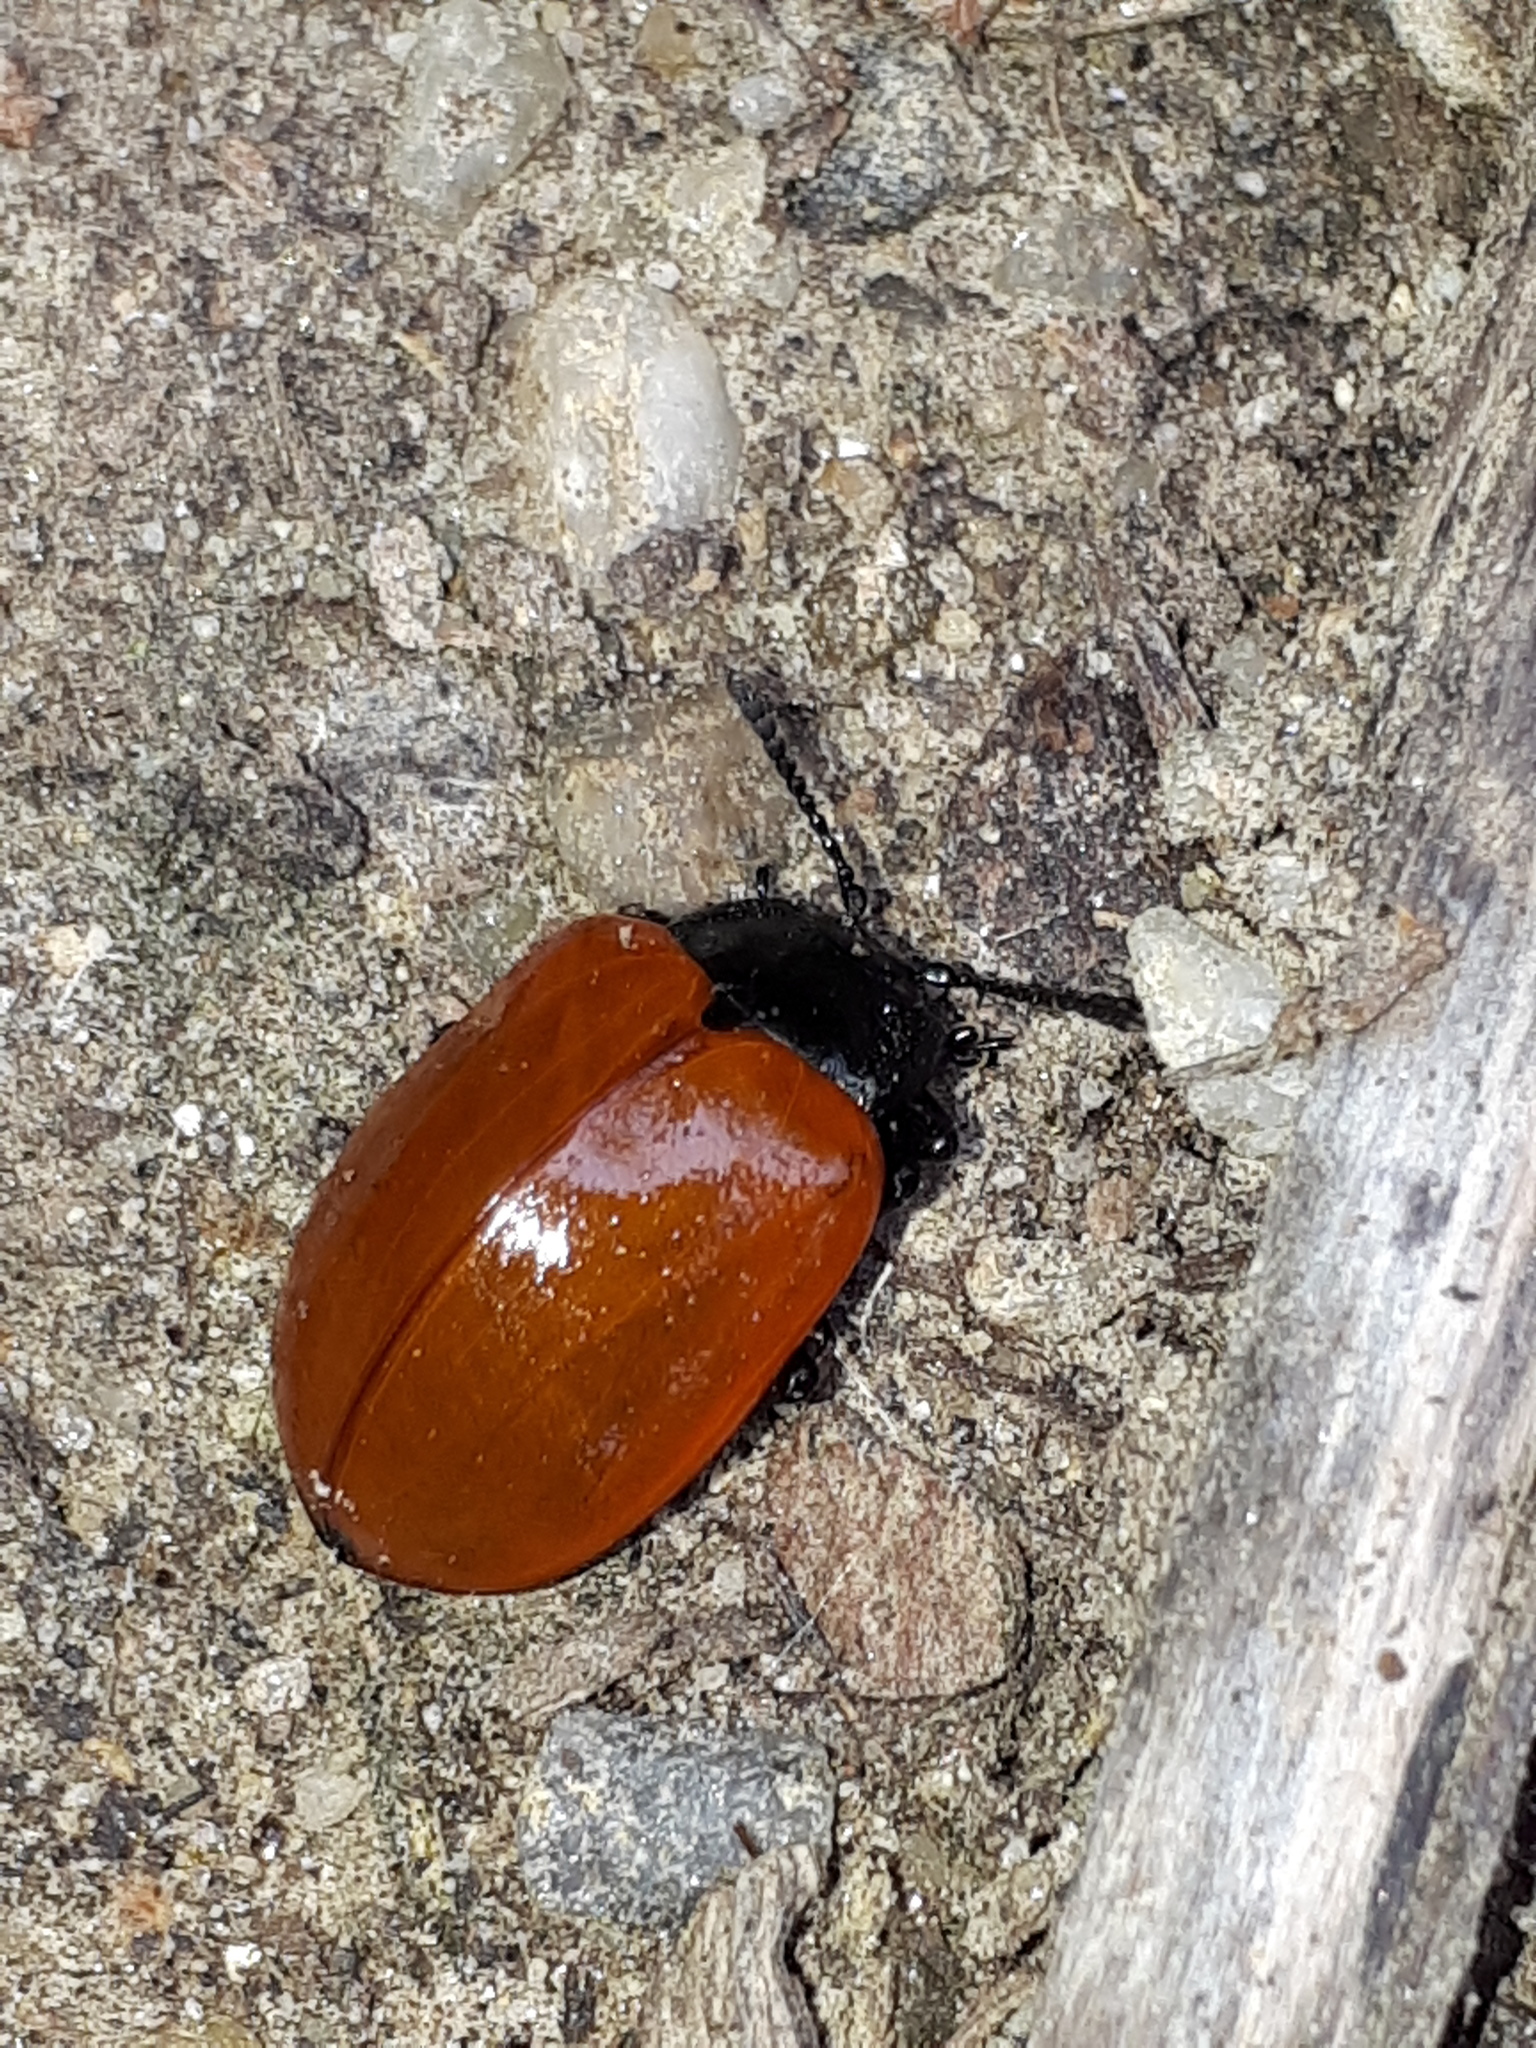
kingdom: Animalia
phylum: Arthropoda
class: Insecta
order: Coleoptera
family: Chrysomelidae
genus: Chrysomela
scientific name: Chrysomela populi
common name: Red poplar leaf beetle
